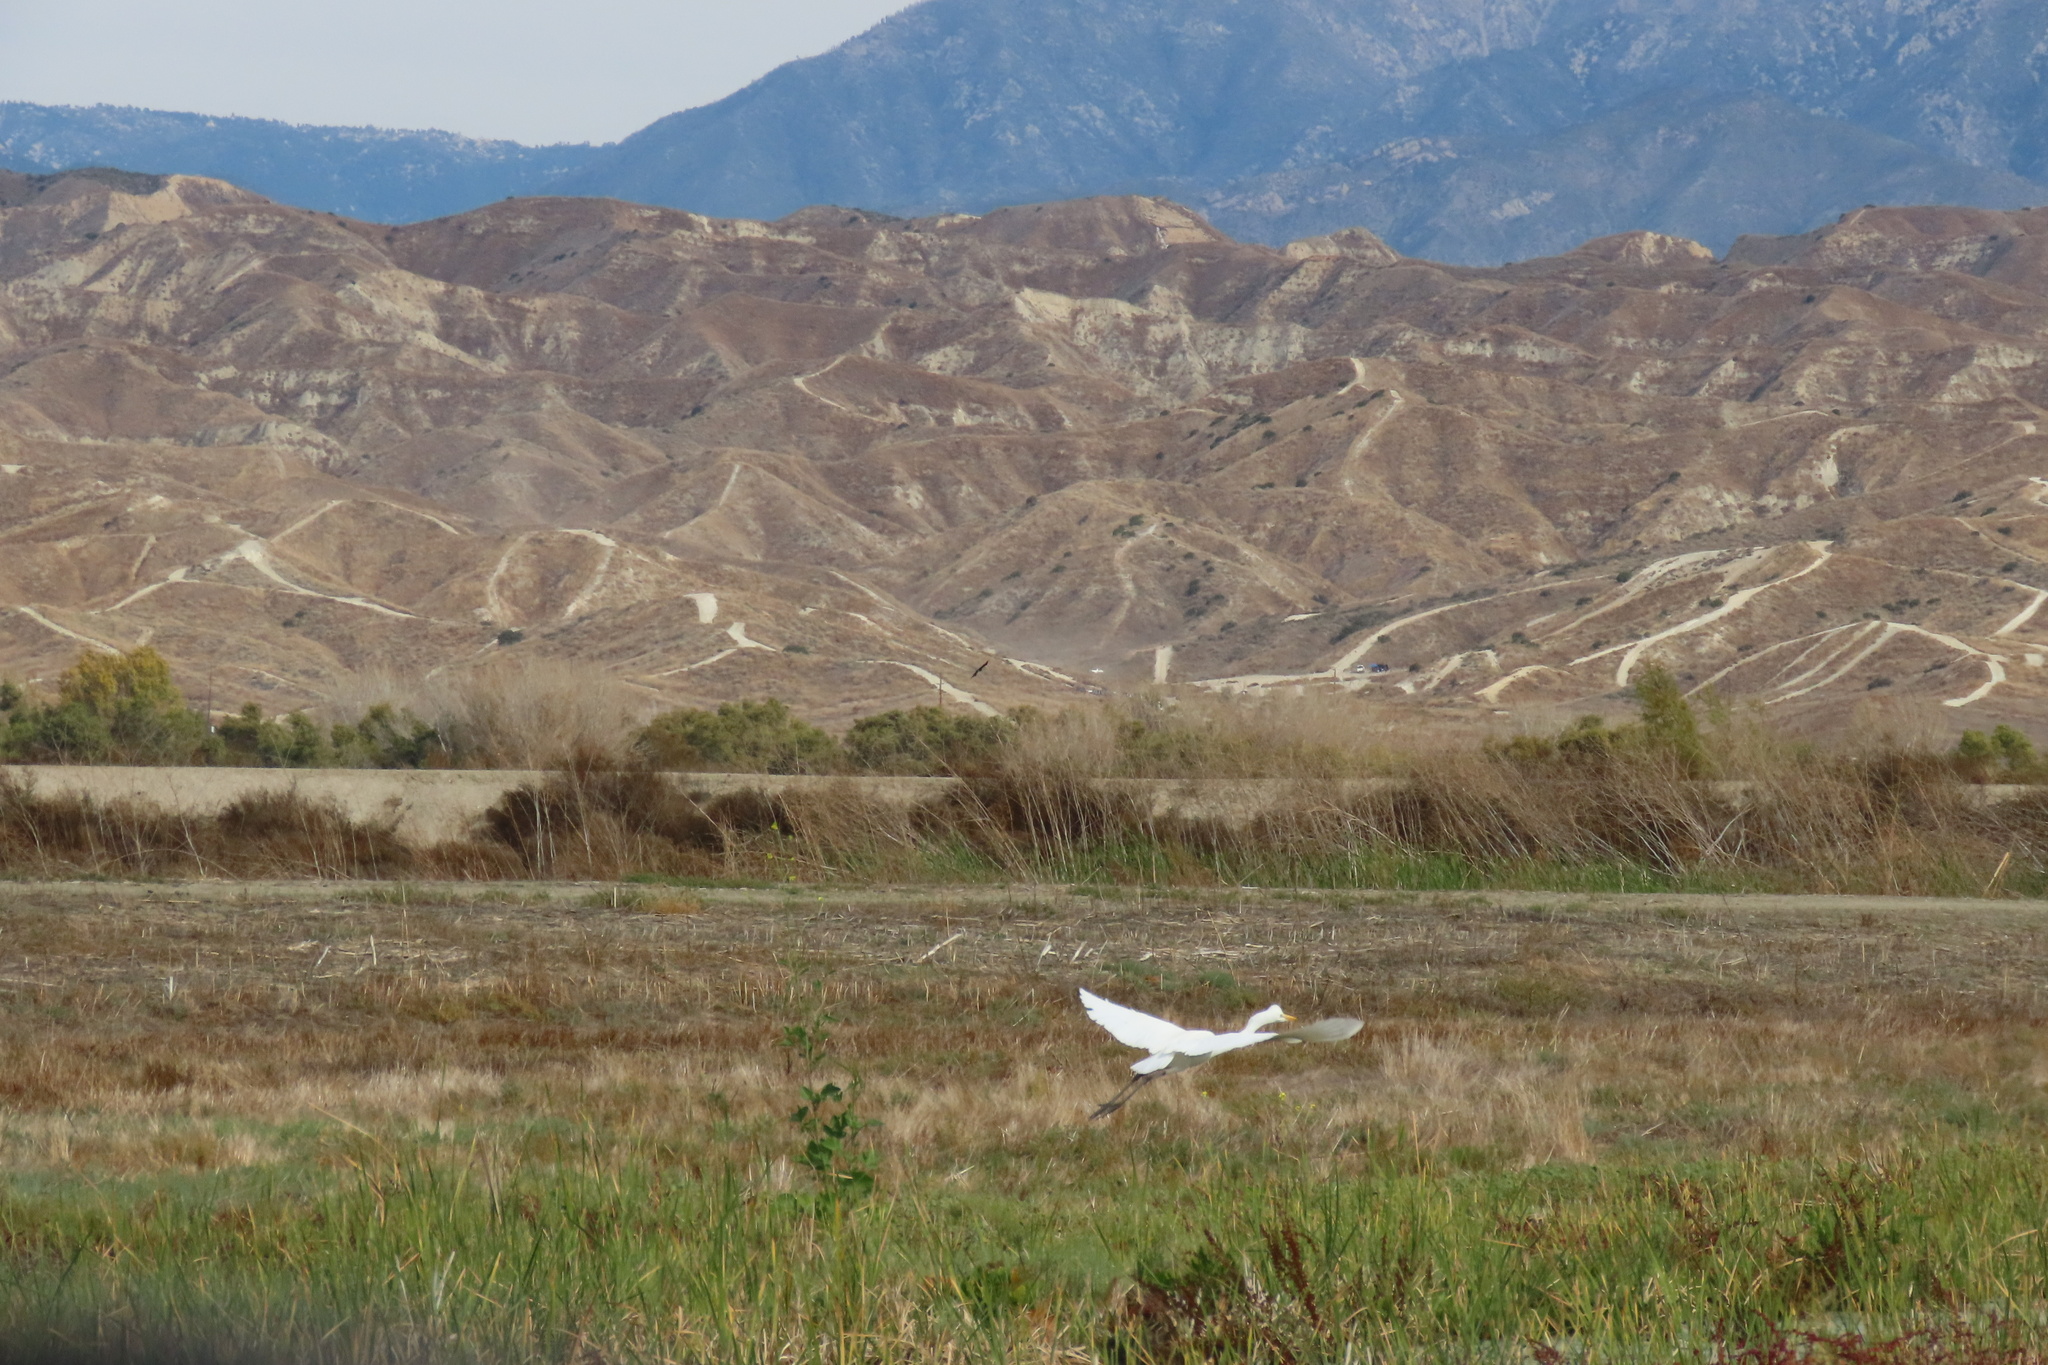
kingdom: Animalia
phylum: Chordata
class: Aves
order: Pelecaniformes
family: Ardeidae
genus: Ardea
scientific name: Ardea alba
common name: Great egret
